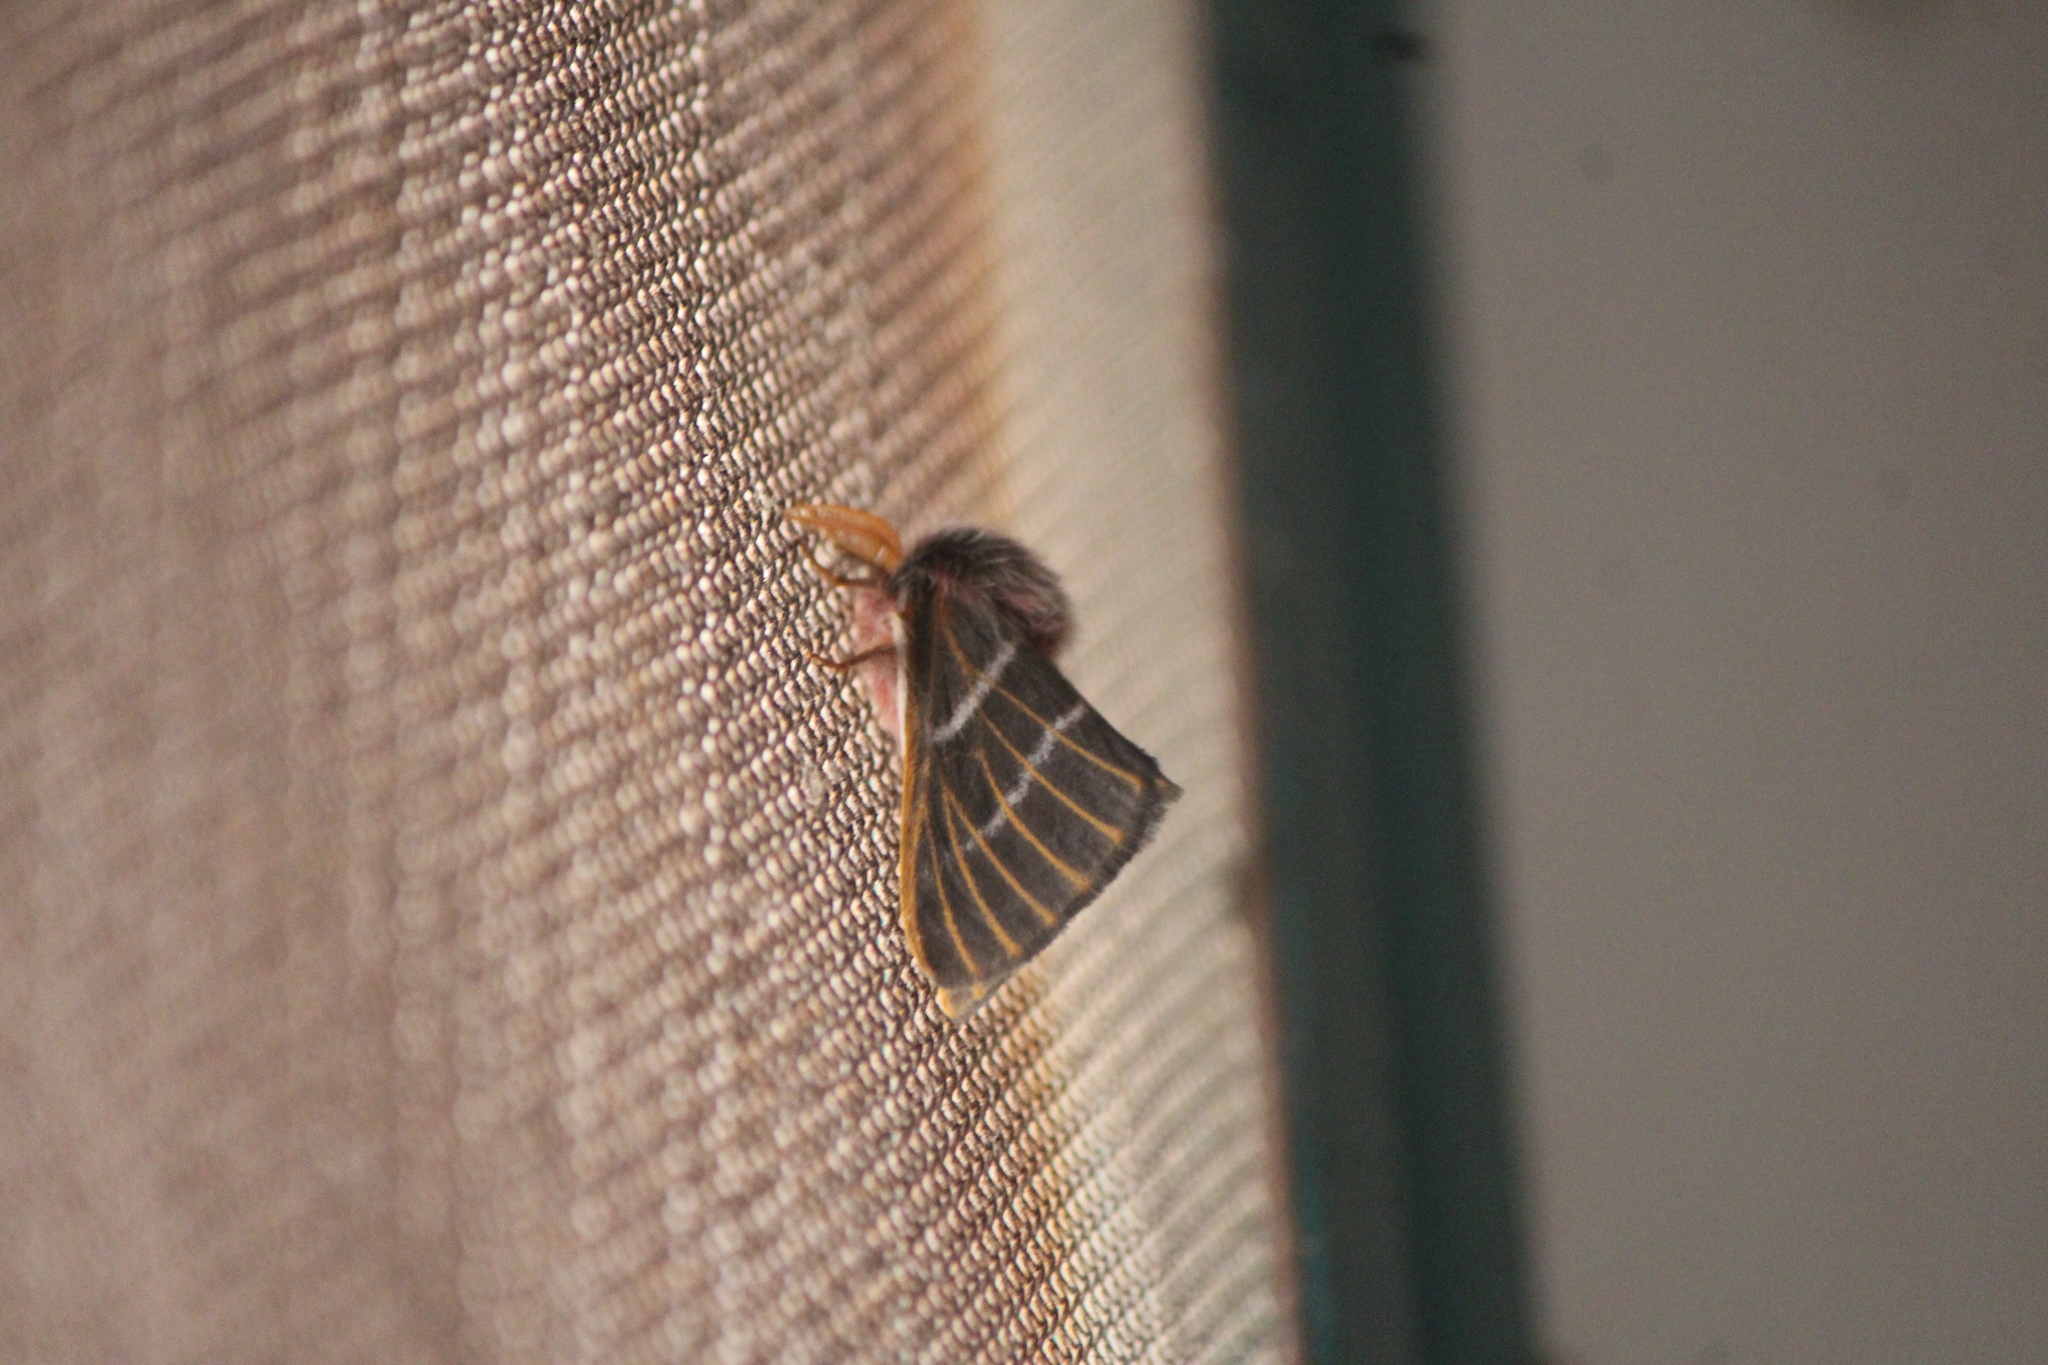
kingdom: Animalia
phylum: Arthropoda
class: Insecta
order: Lepidoptera
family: Saturniidae
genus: Hemileuca
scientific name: Hemileuca rubridorsa
